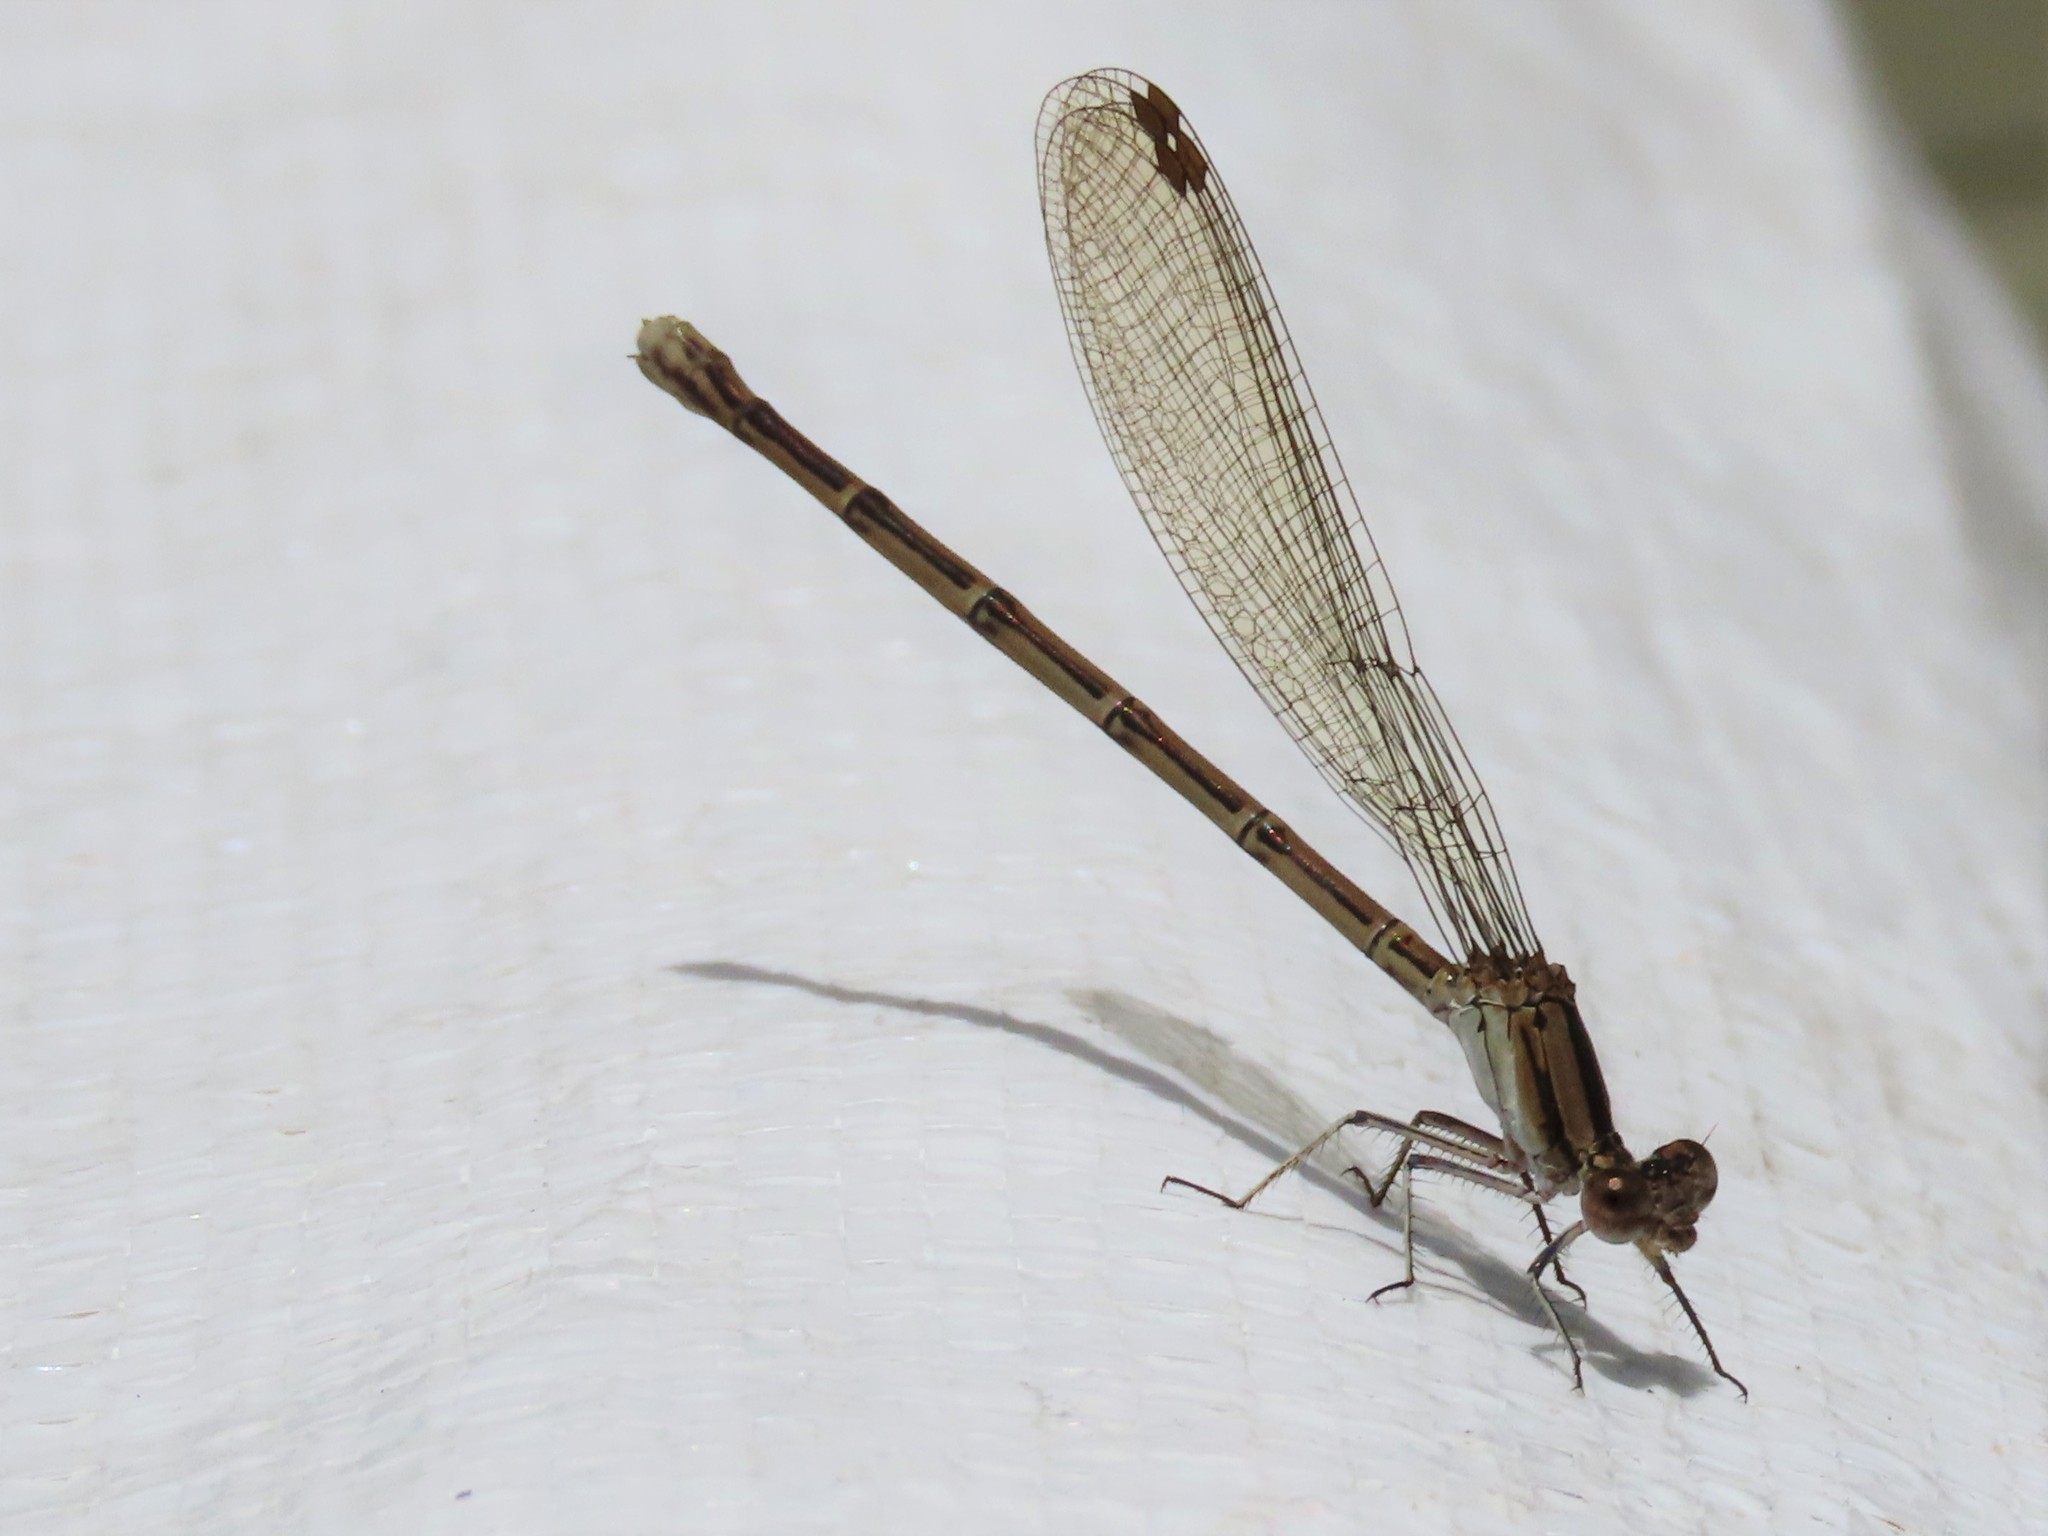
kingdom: Animalia
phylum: Arthropoda
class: Insecta
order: Odonata
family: Coenagrionidae
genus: Argia
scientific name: Argia fumipennis
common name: Variable dancer
